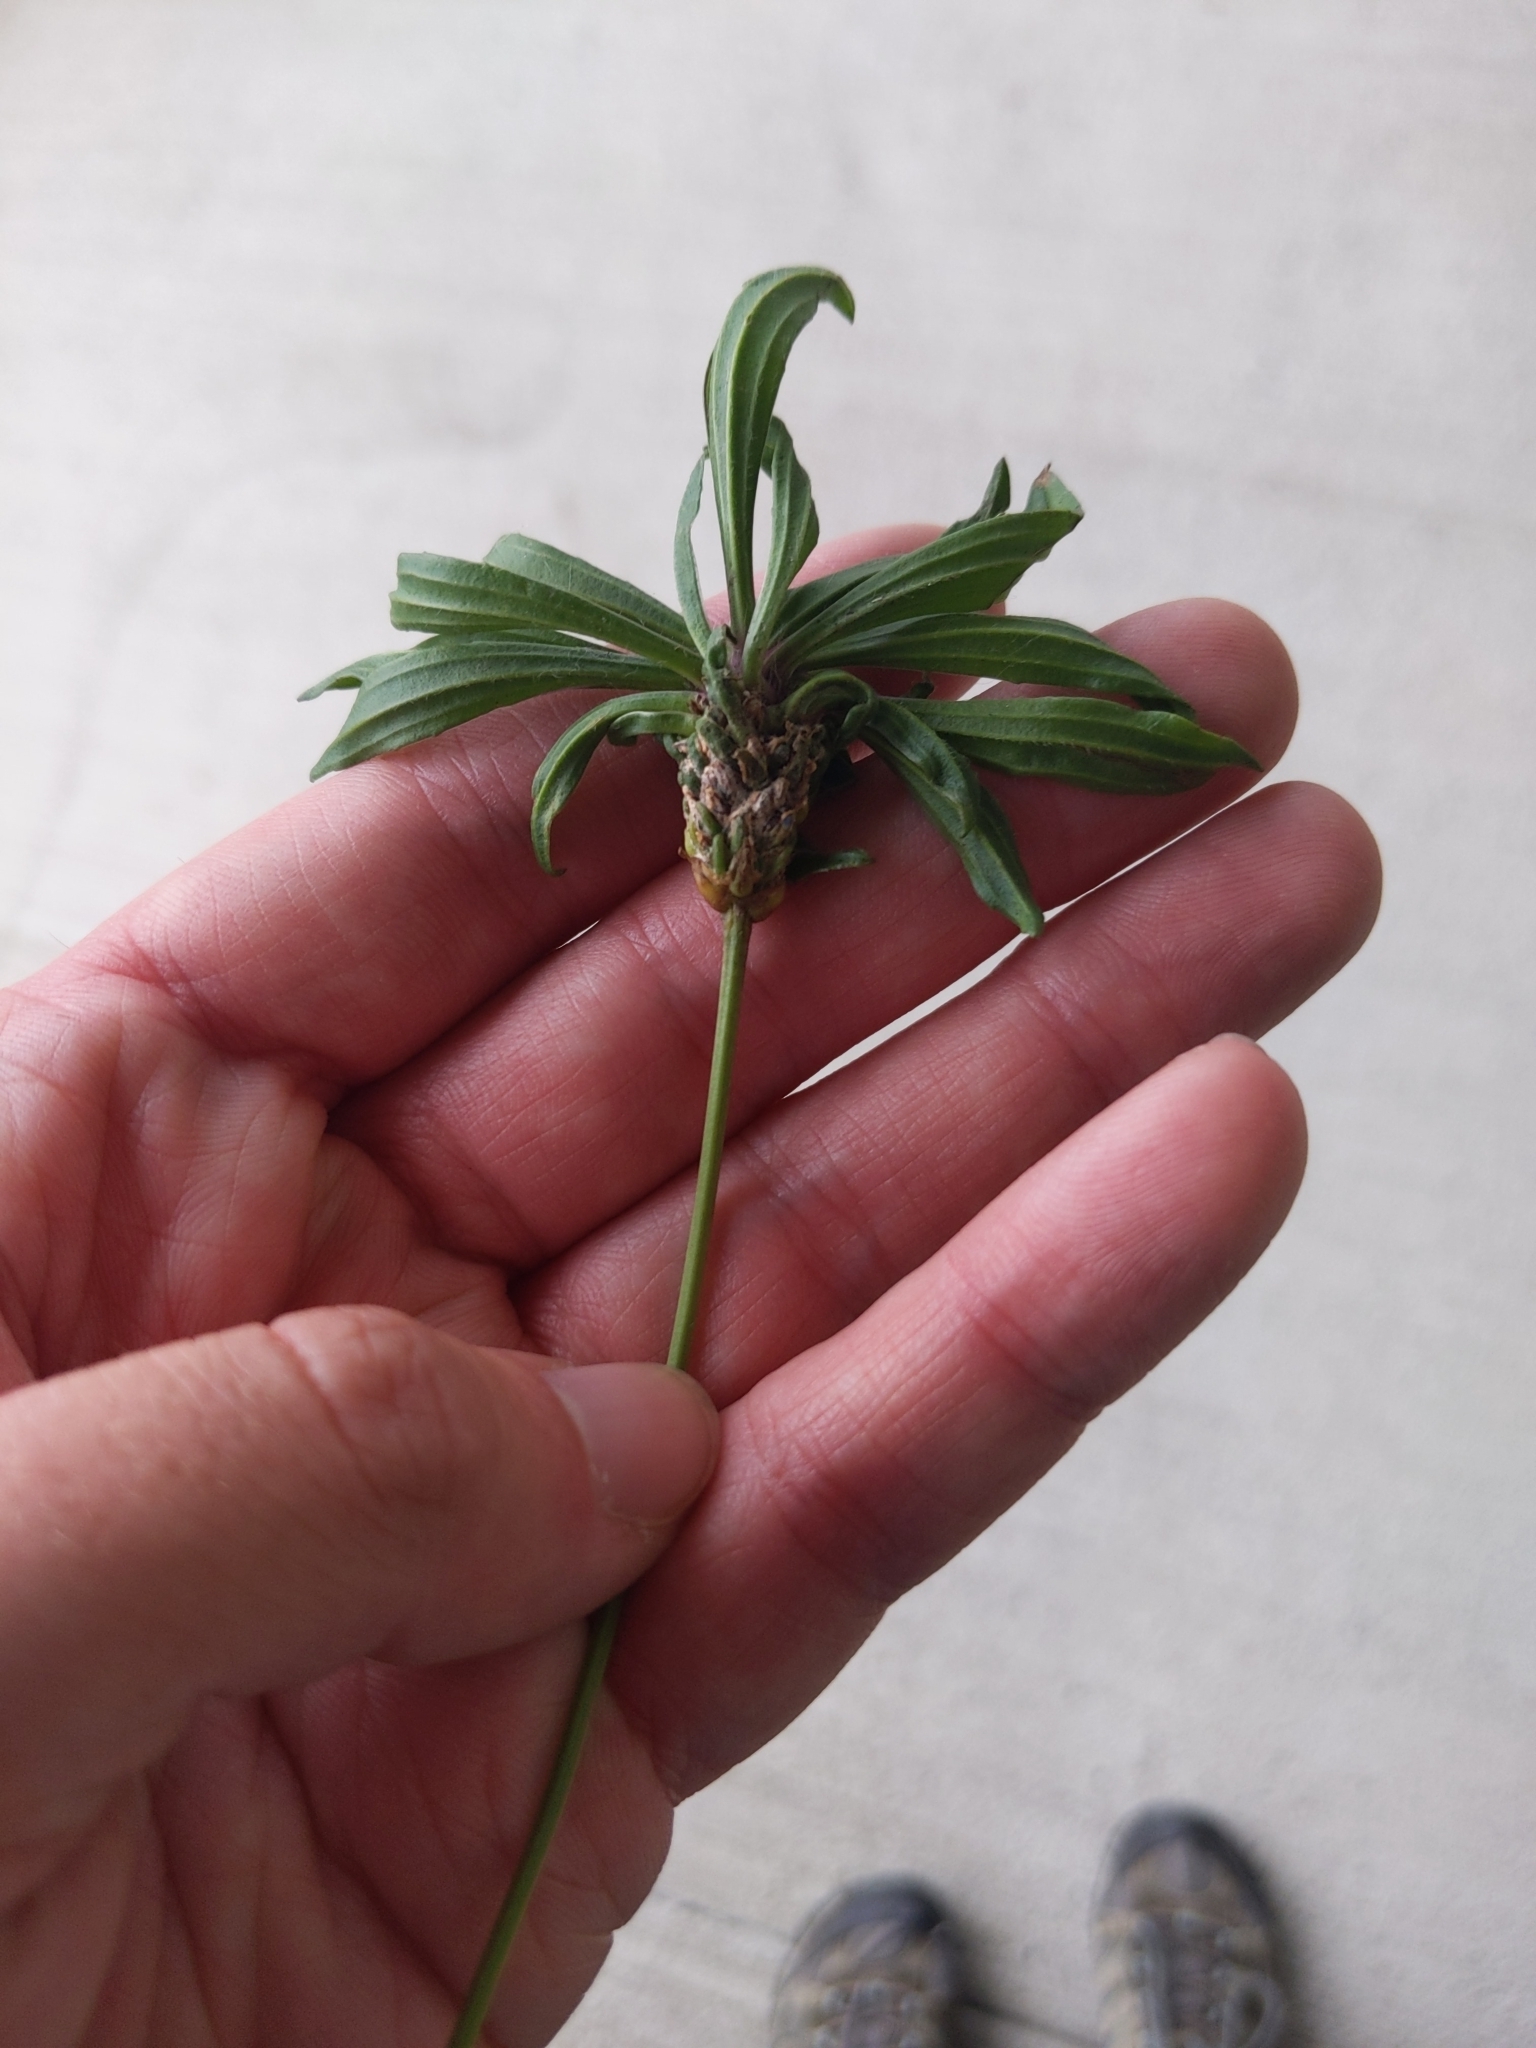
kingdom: Plantae
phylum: Tracheophyta
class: Magnoliopsida
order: Lamiales
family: Plantaginaceae
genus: Plantago
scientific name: Plantago lanceolata
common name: Ribwort plantain
